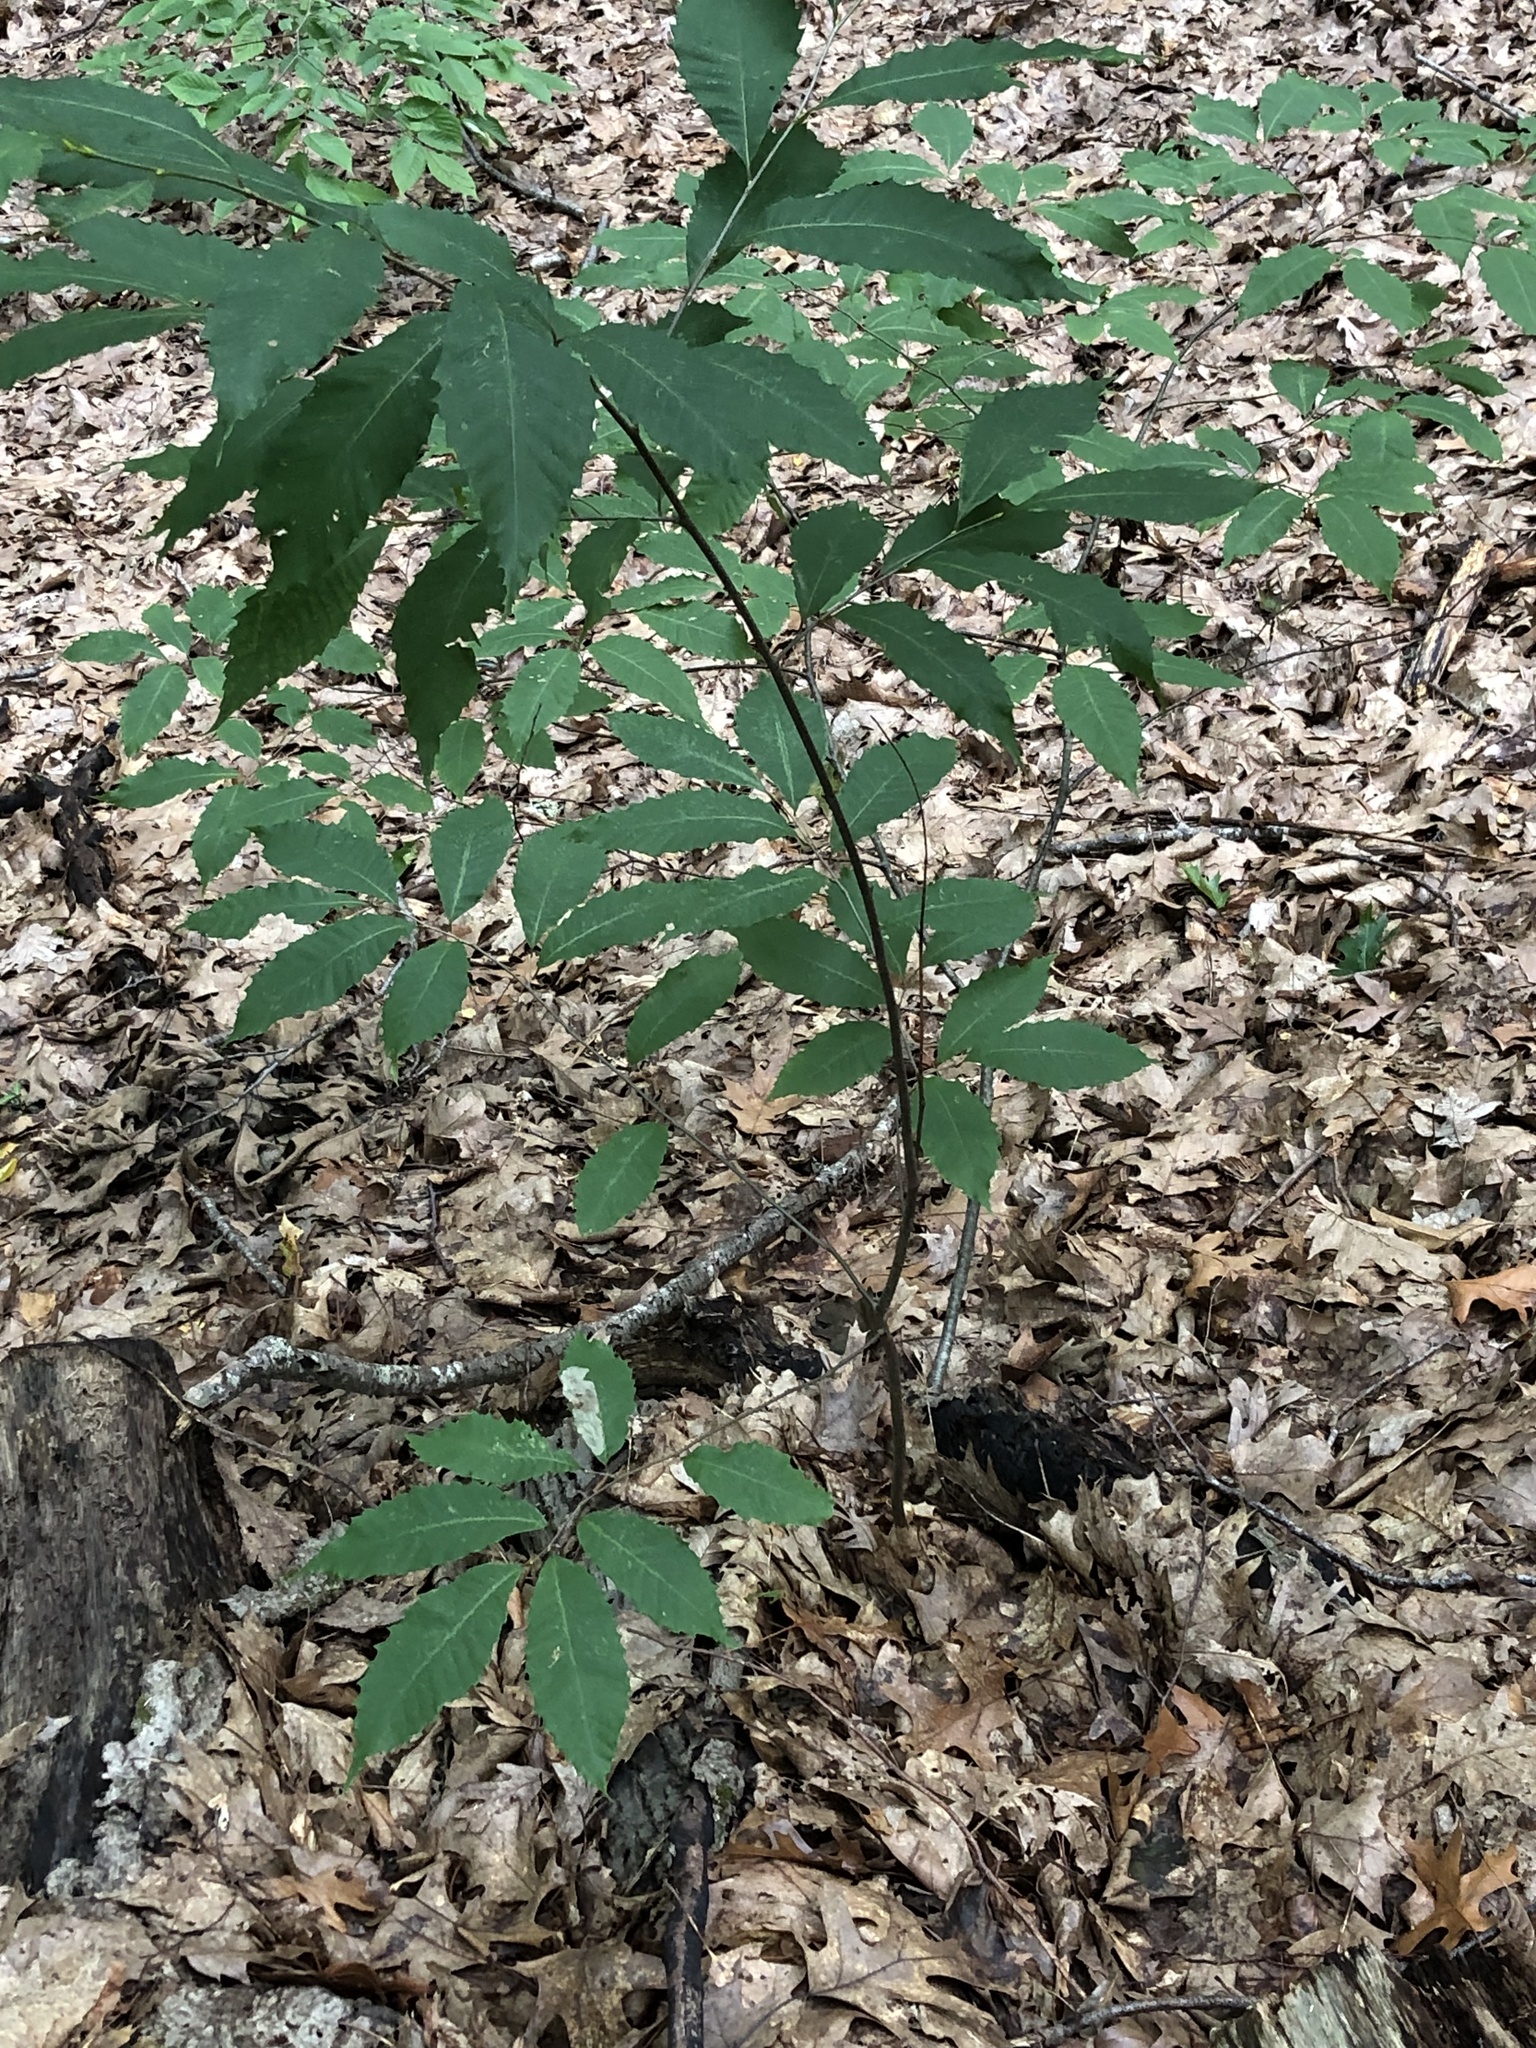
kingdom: Plantae
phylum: Tracheophyta
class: Magnoliopsida
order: Fagales
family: Fagaceae
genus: Castanea
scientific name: Castanea dentata
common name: American chestnut
